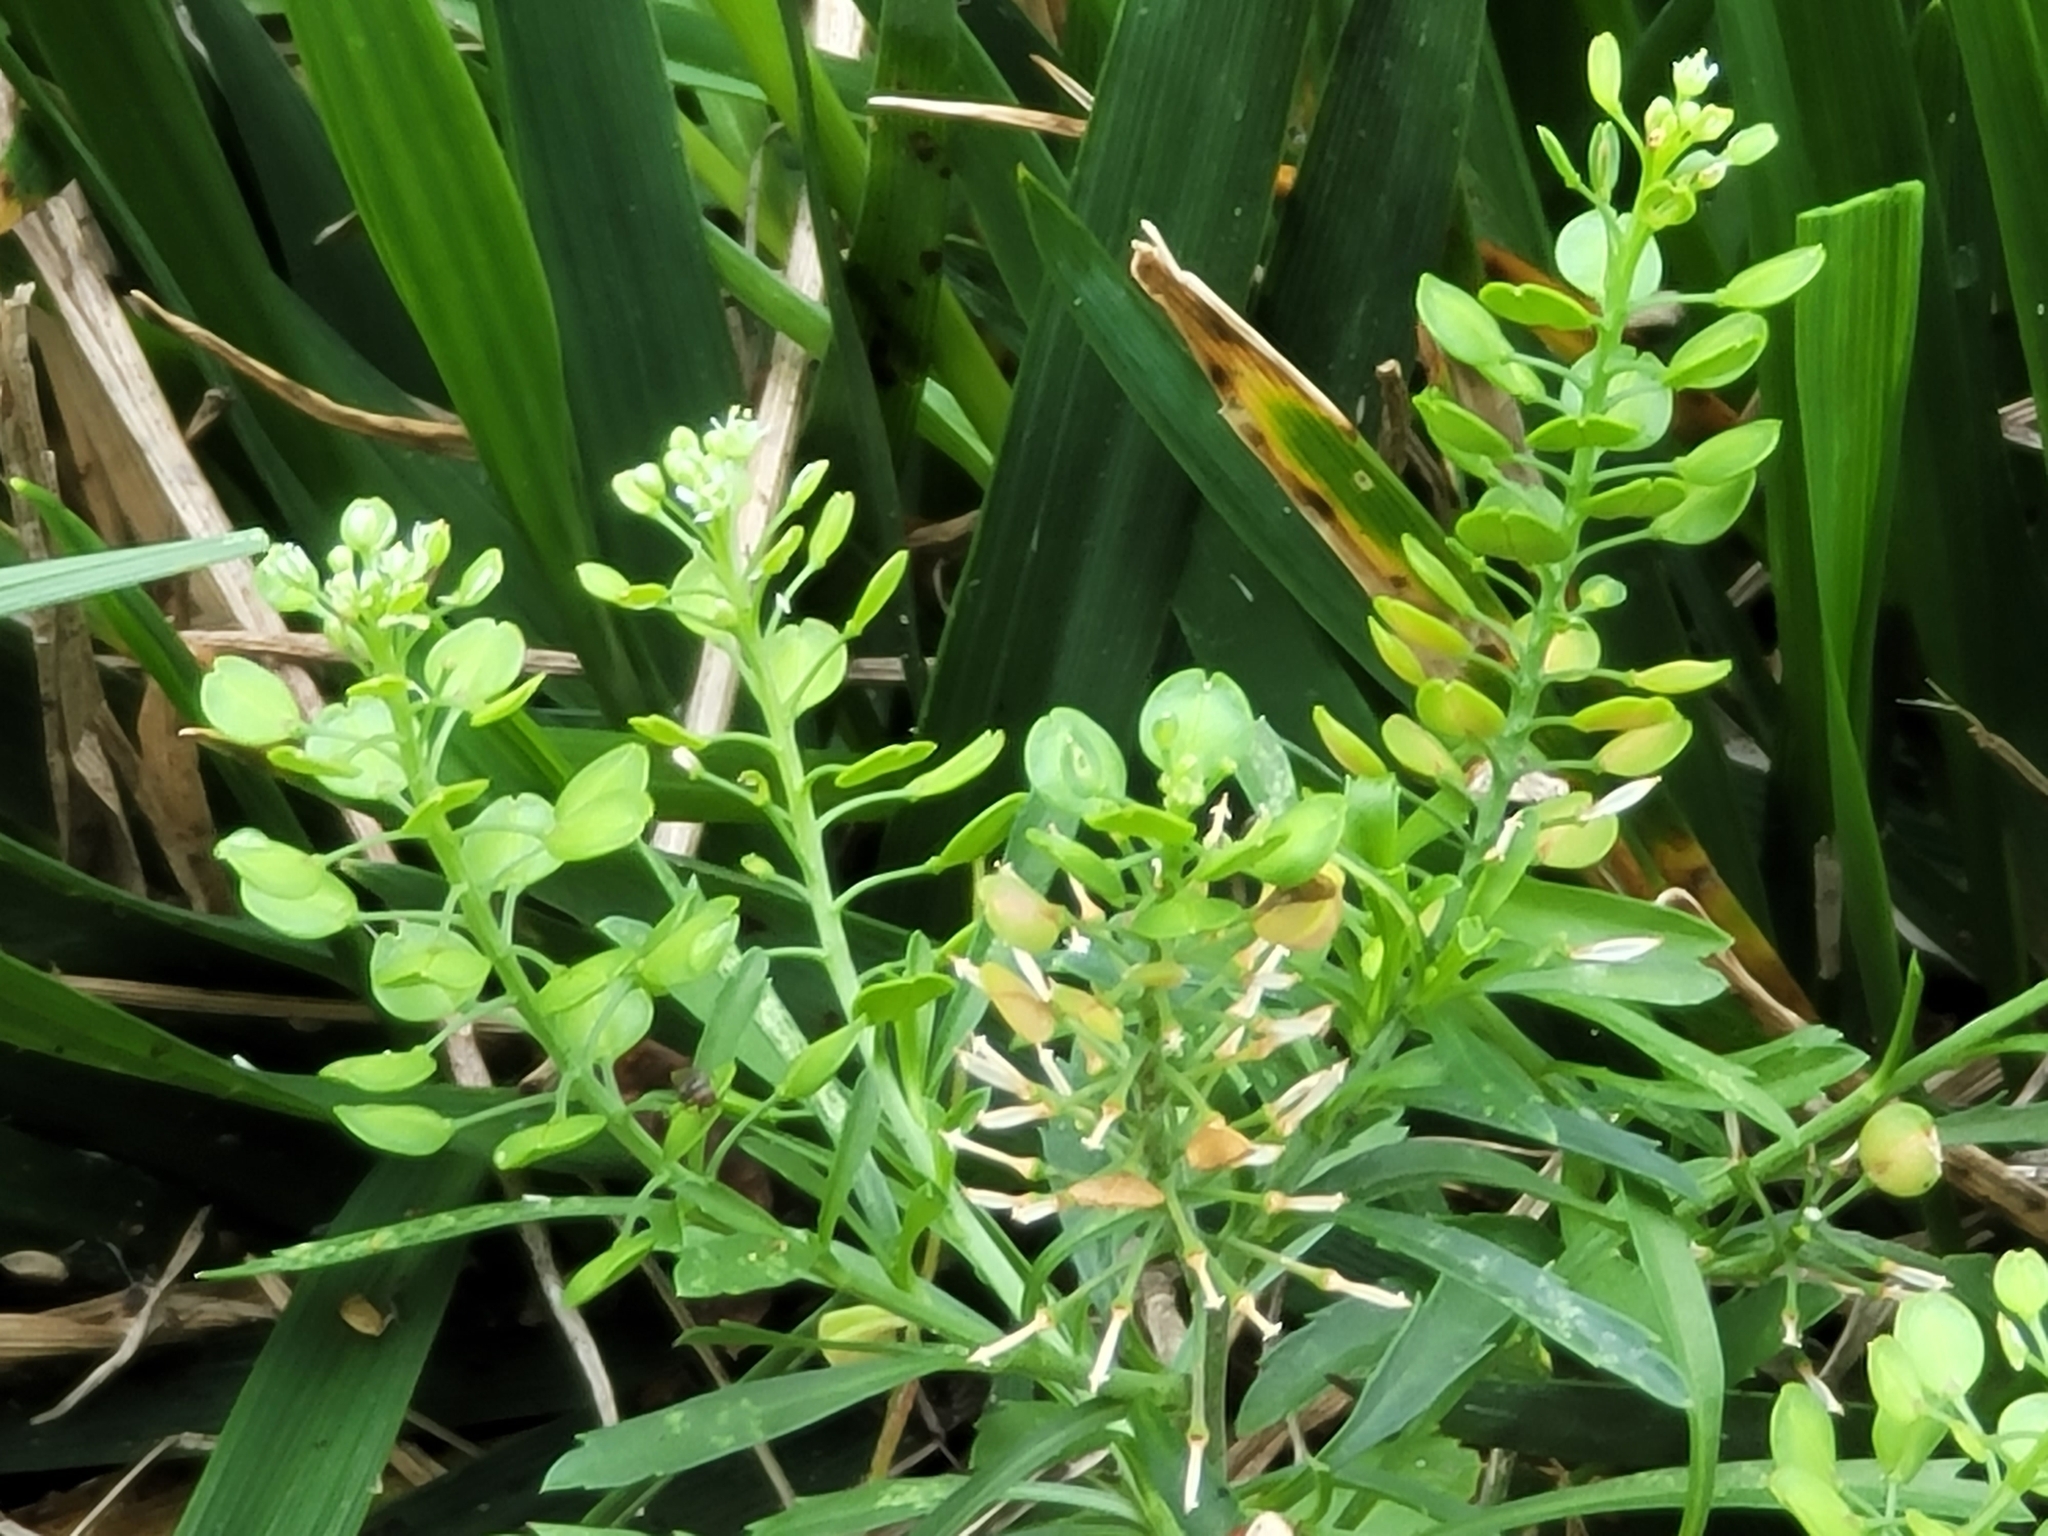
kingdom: Plantae
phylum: Tracheophyta
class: Magnoliopsida
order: Brassicales
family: Brassicaceae
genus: Lepidium
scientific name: Lepidium virginicum
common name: Least pepperwort
